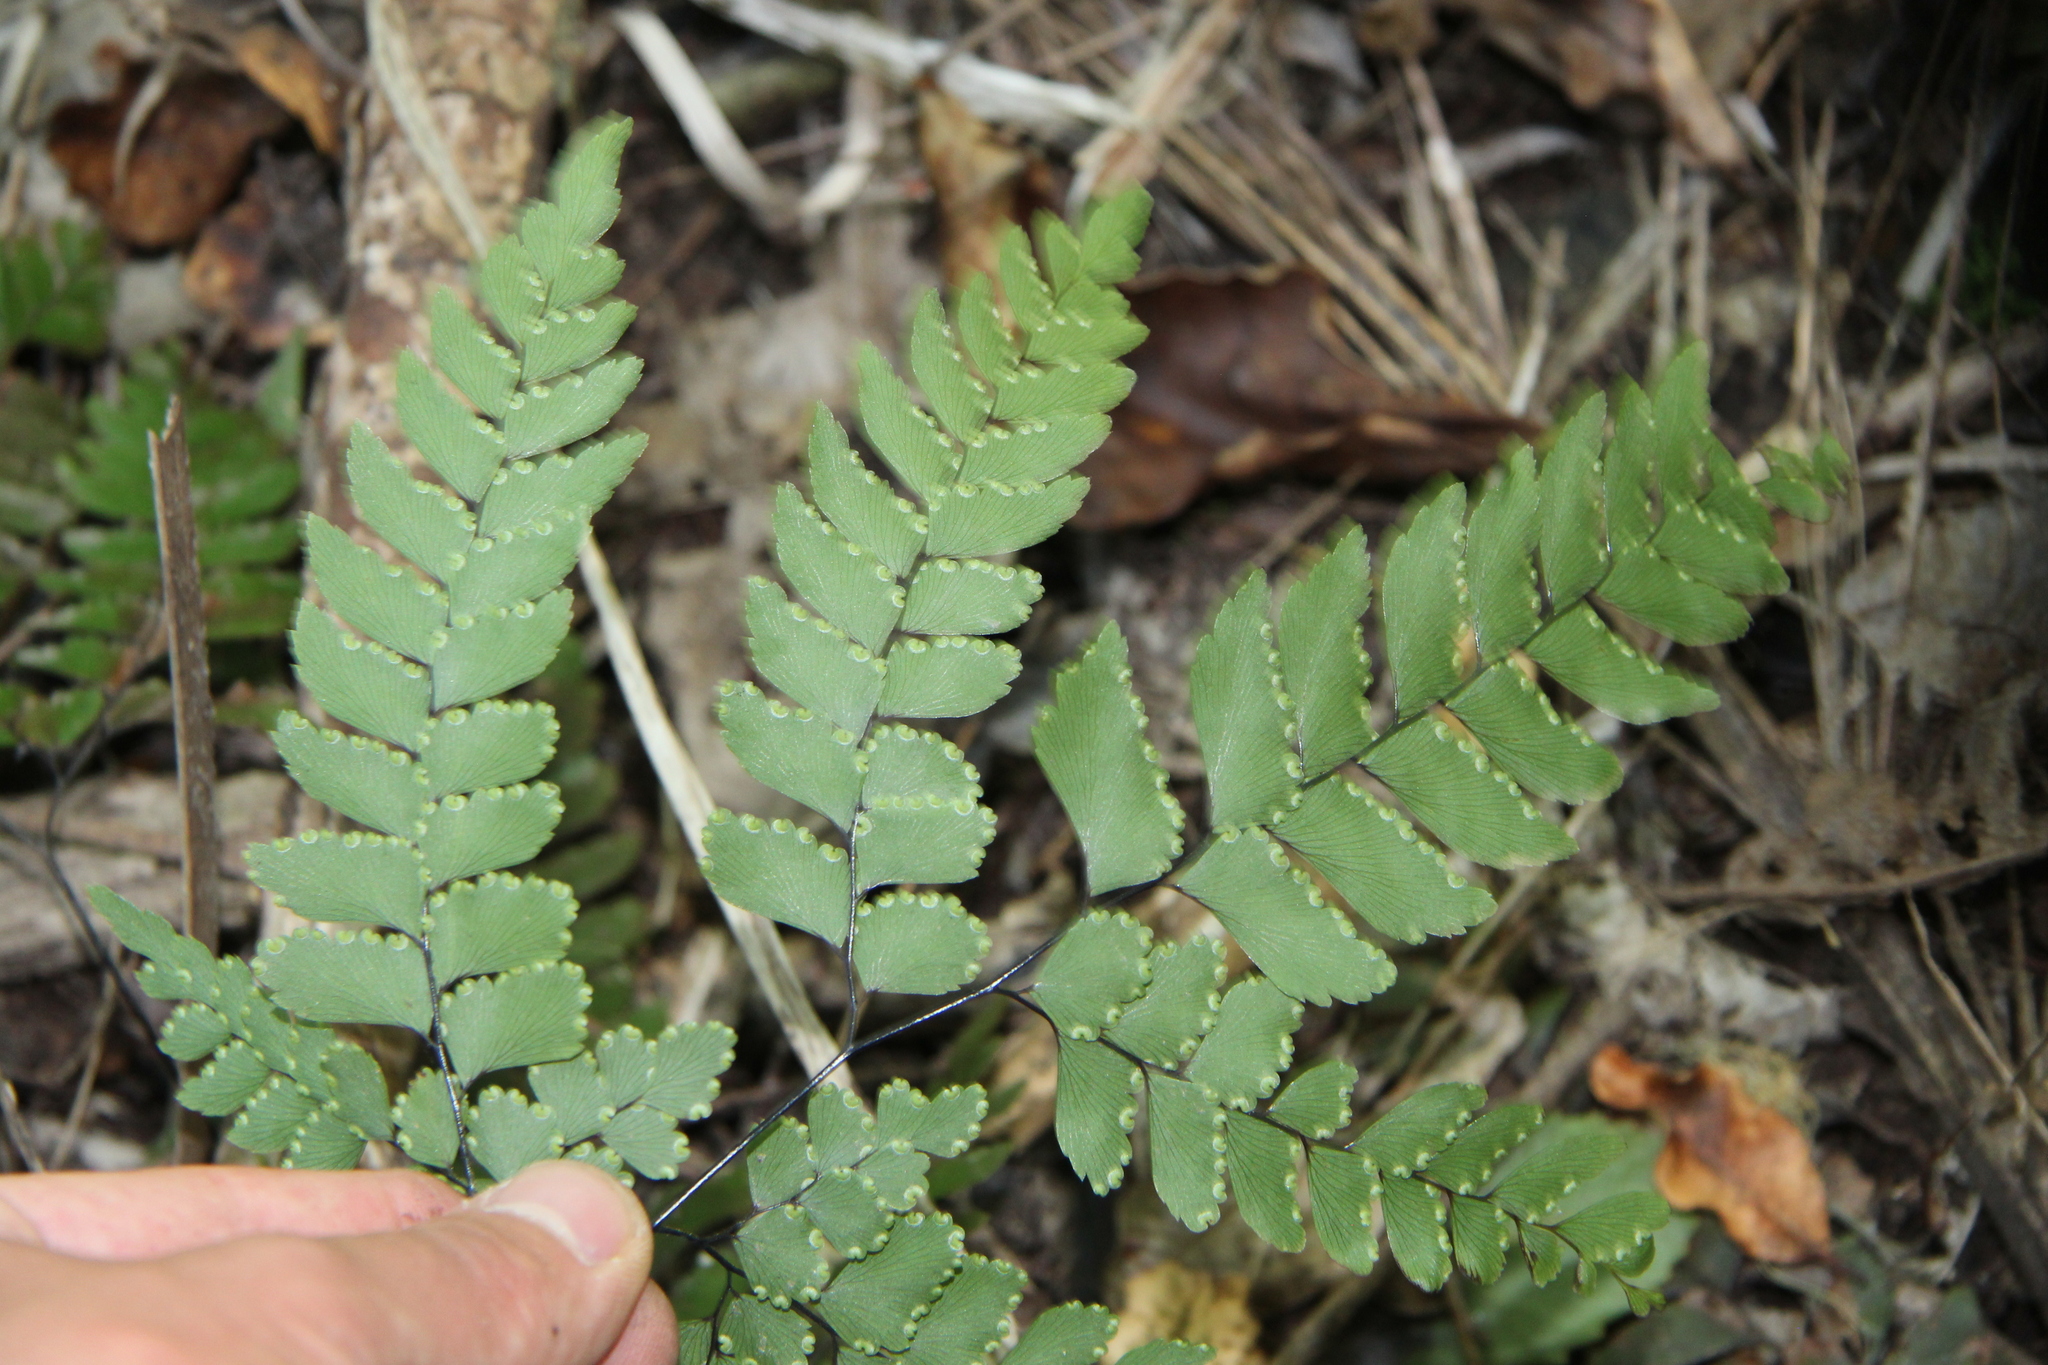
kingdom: Plantae
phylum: Tracheophyta
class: Polypodiopsida
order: Polypodiales
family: Pteridaceae
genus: Adiantum
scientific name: Adiantum cunninghamii
